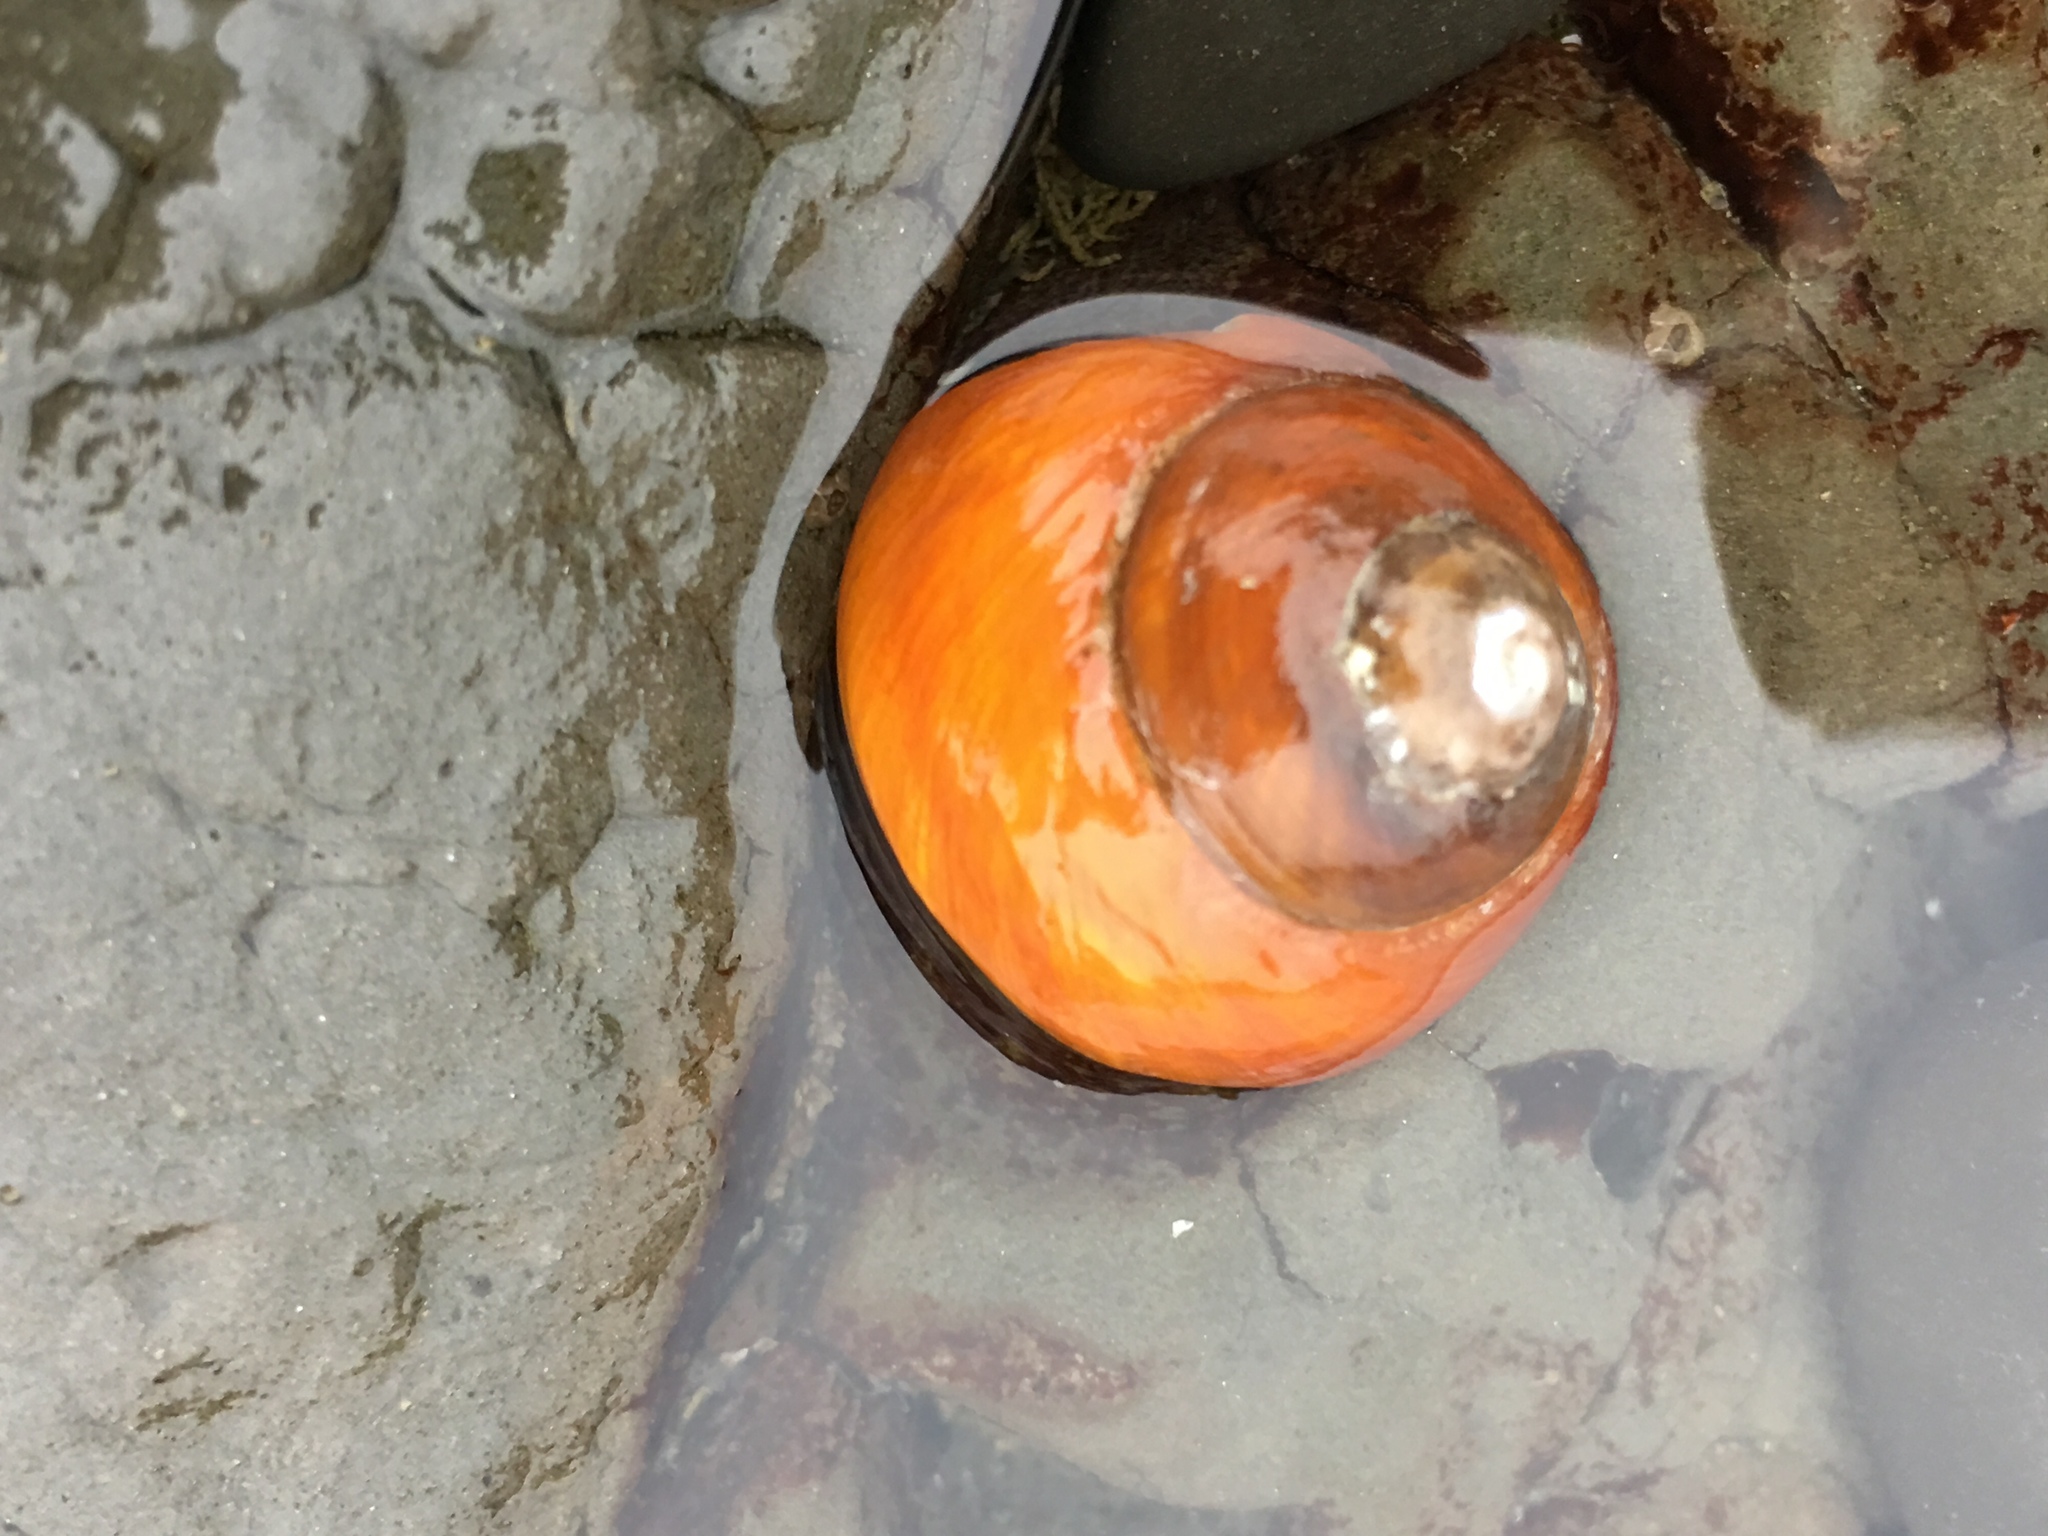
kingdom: Animalia
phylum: Mollusca
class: Gastropoda
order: Trochida
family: Tegulidae
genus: Tegula
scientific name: Tegula brunnea
